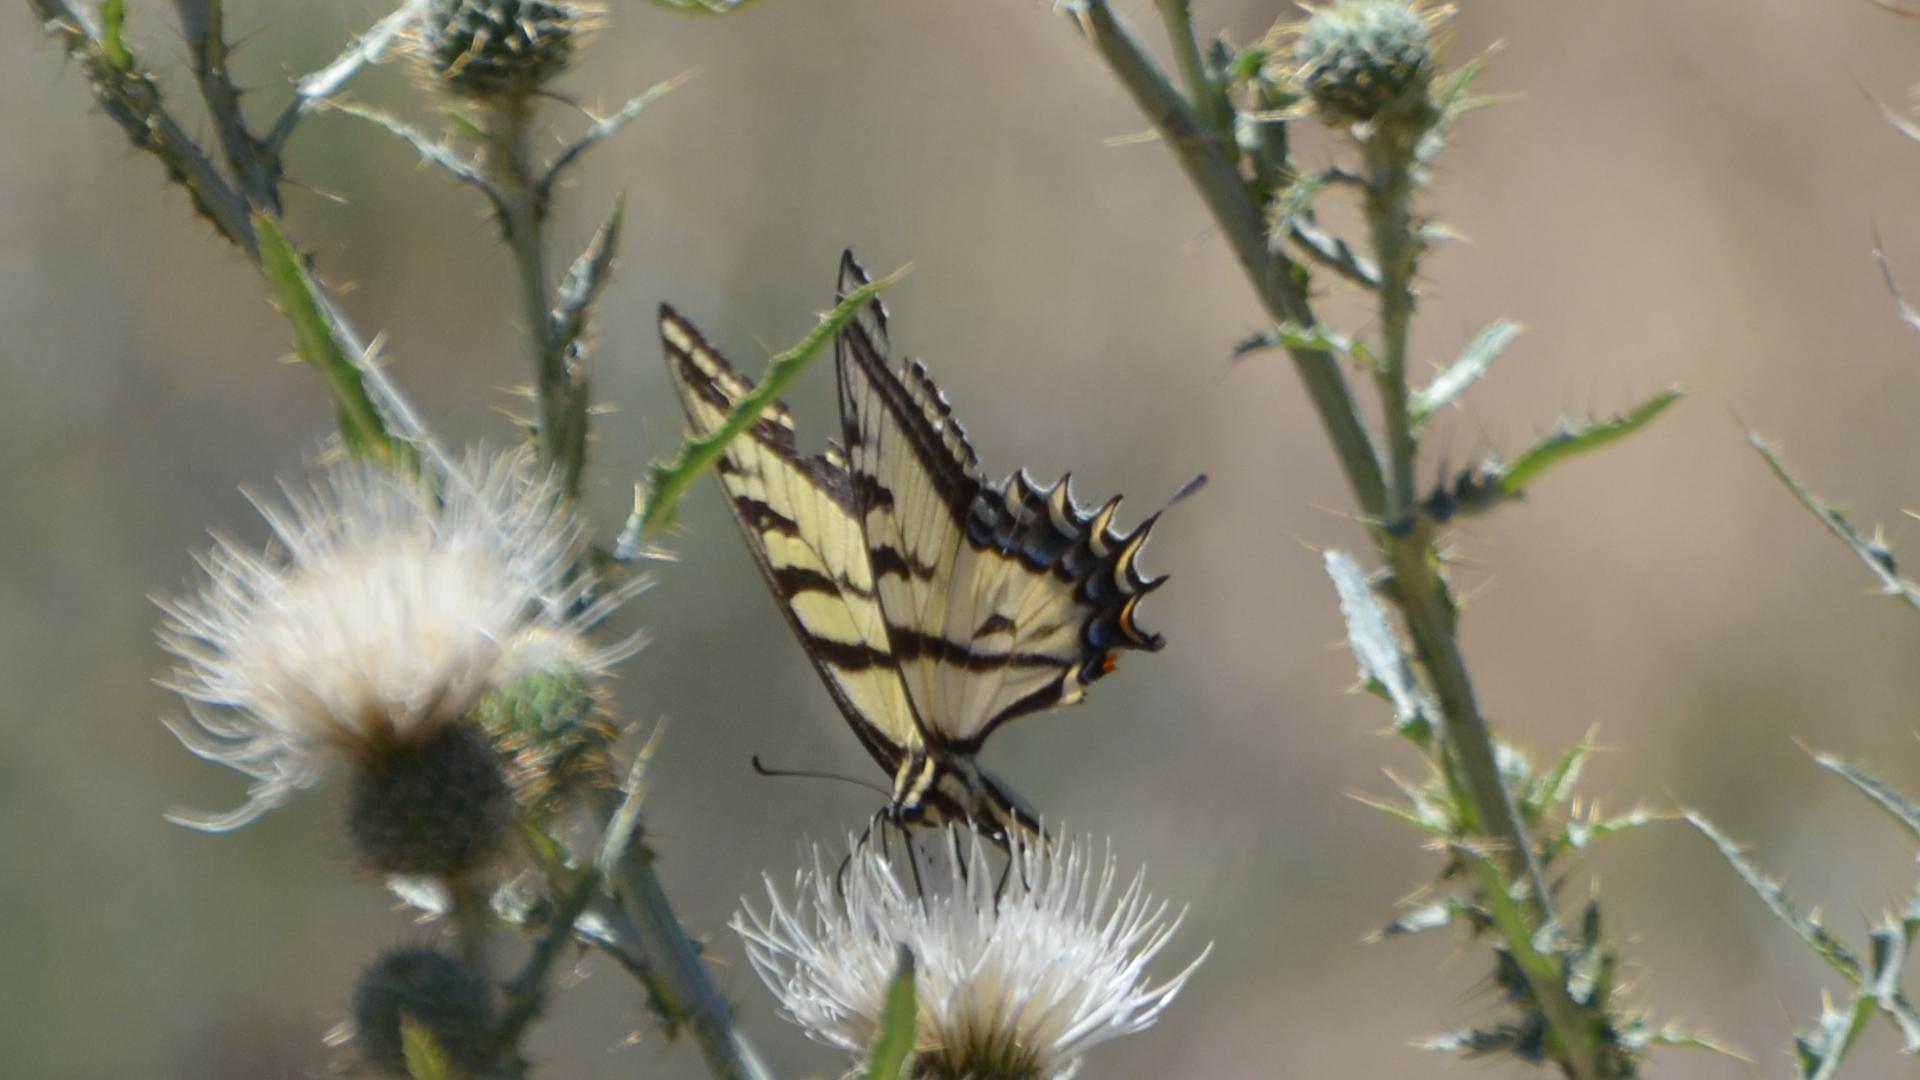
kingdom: Animalia
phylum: Arthropoda
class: Insecta
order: Lepidoptera
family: Papilionidae
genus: Papilio
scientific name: Papilio multicaudata
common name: Two-tailed tiger swallowtail
